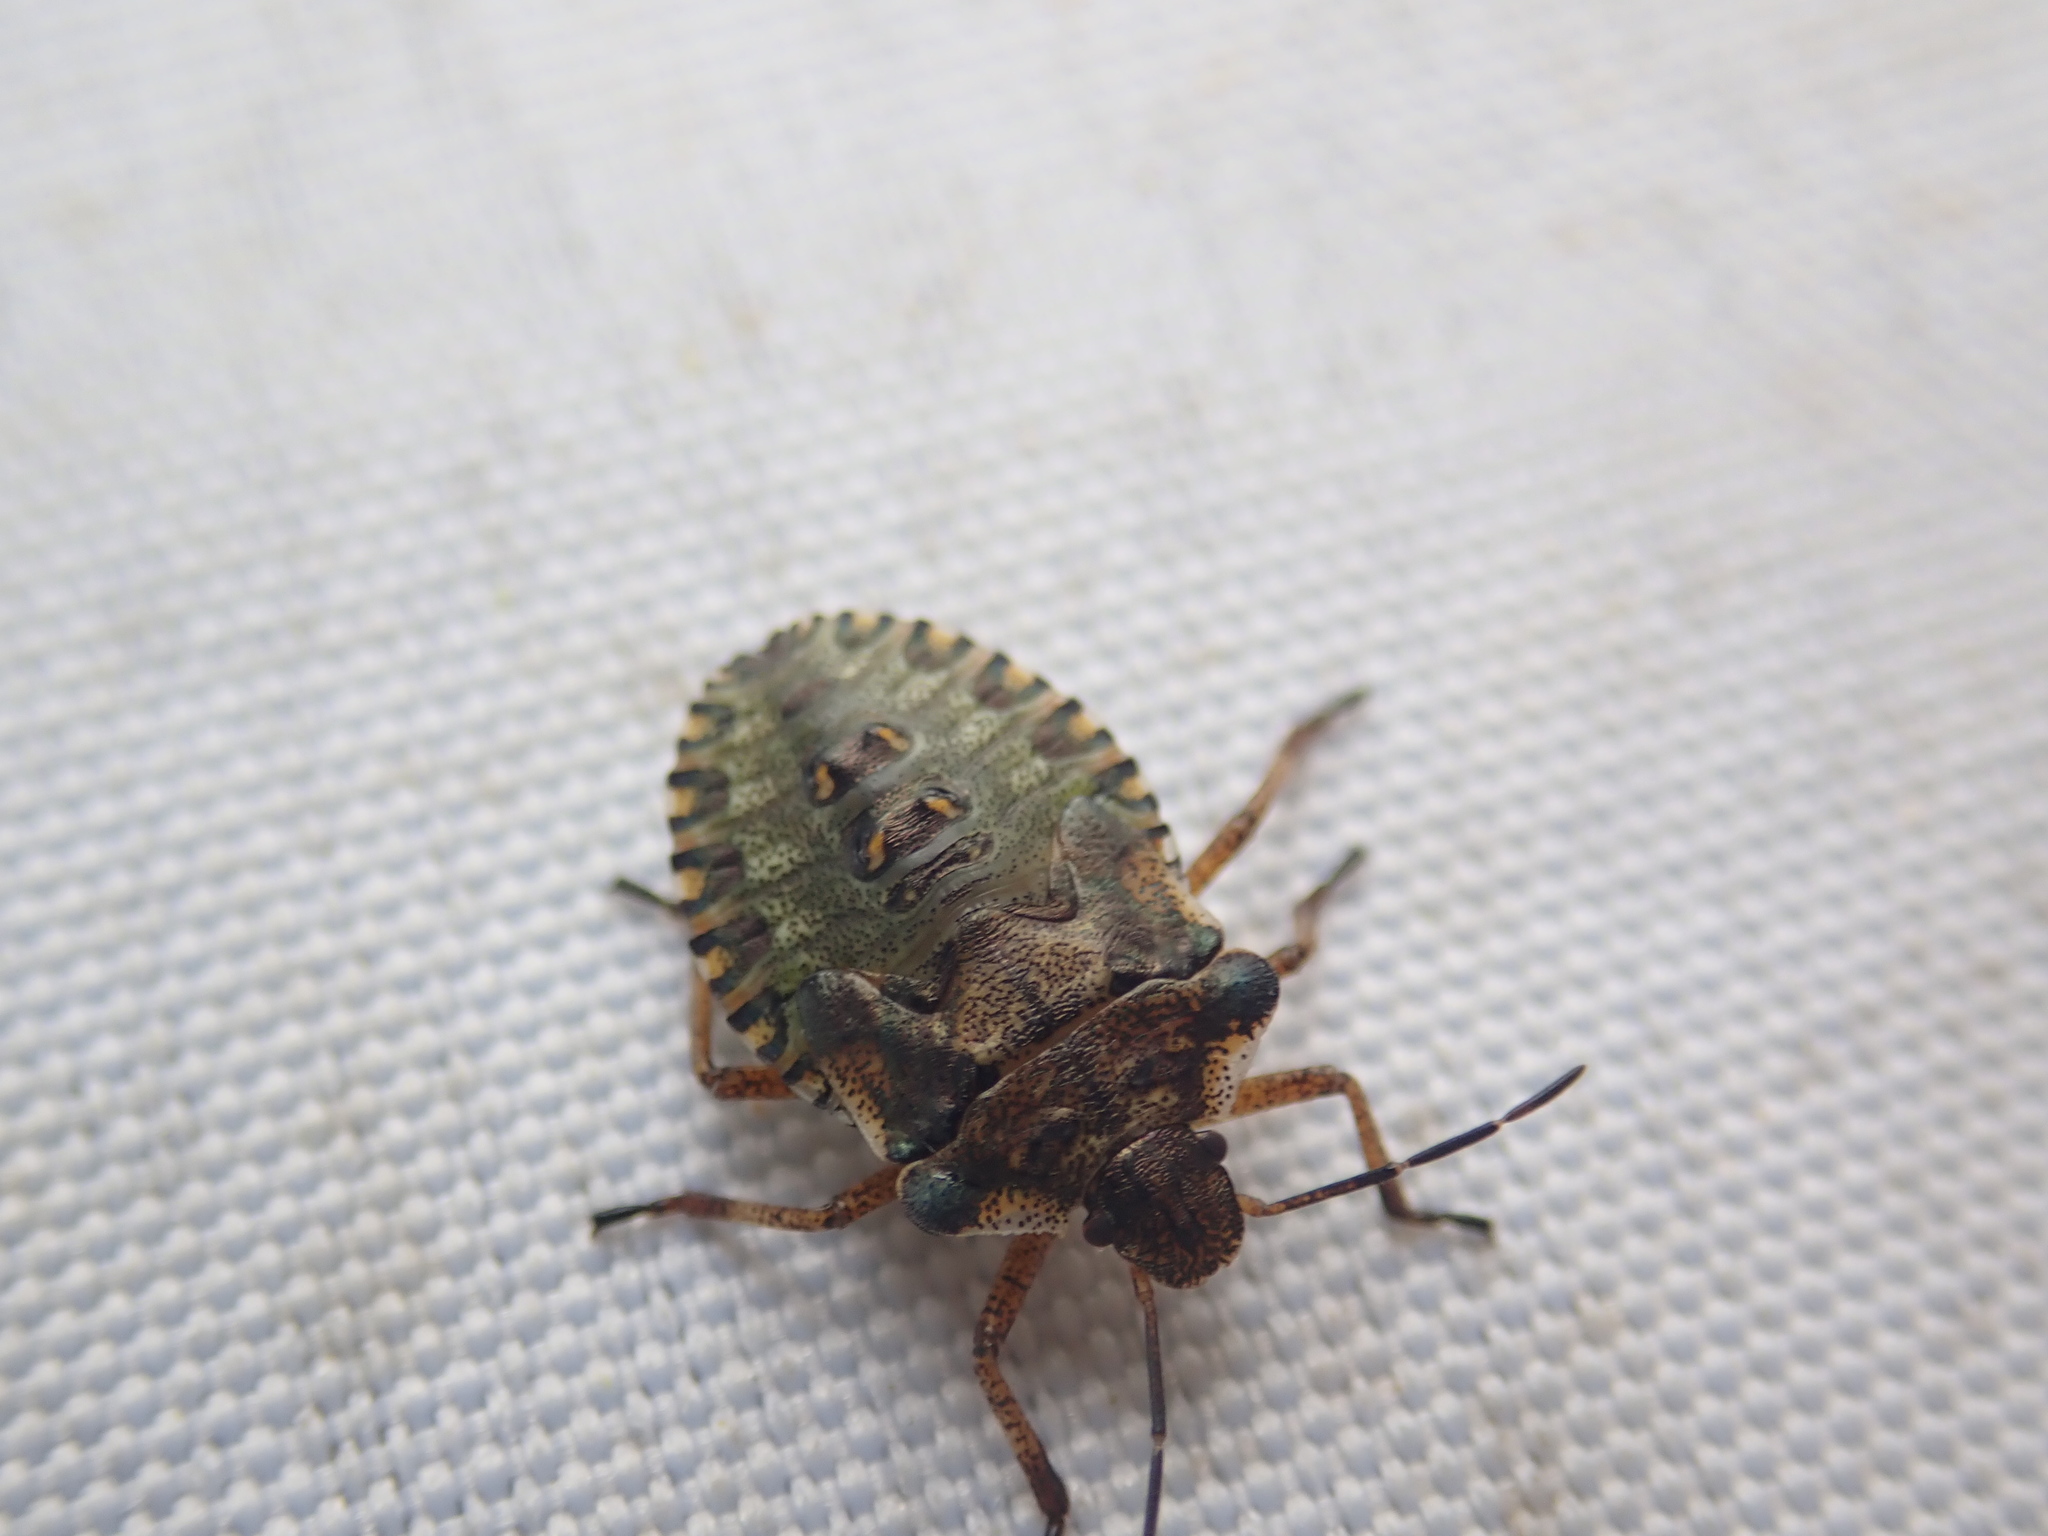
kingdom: Animalia
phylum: Arthropoda
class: Insecta
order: Hemiptera
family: Pentatomidae
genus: Pentatoma
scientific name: Pentatoma rufipes
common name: Forest bug
